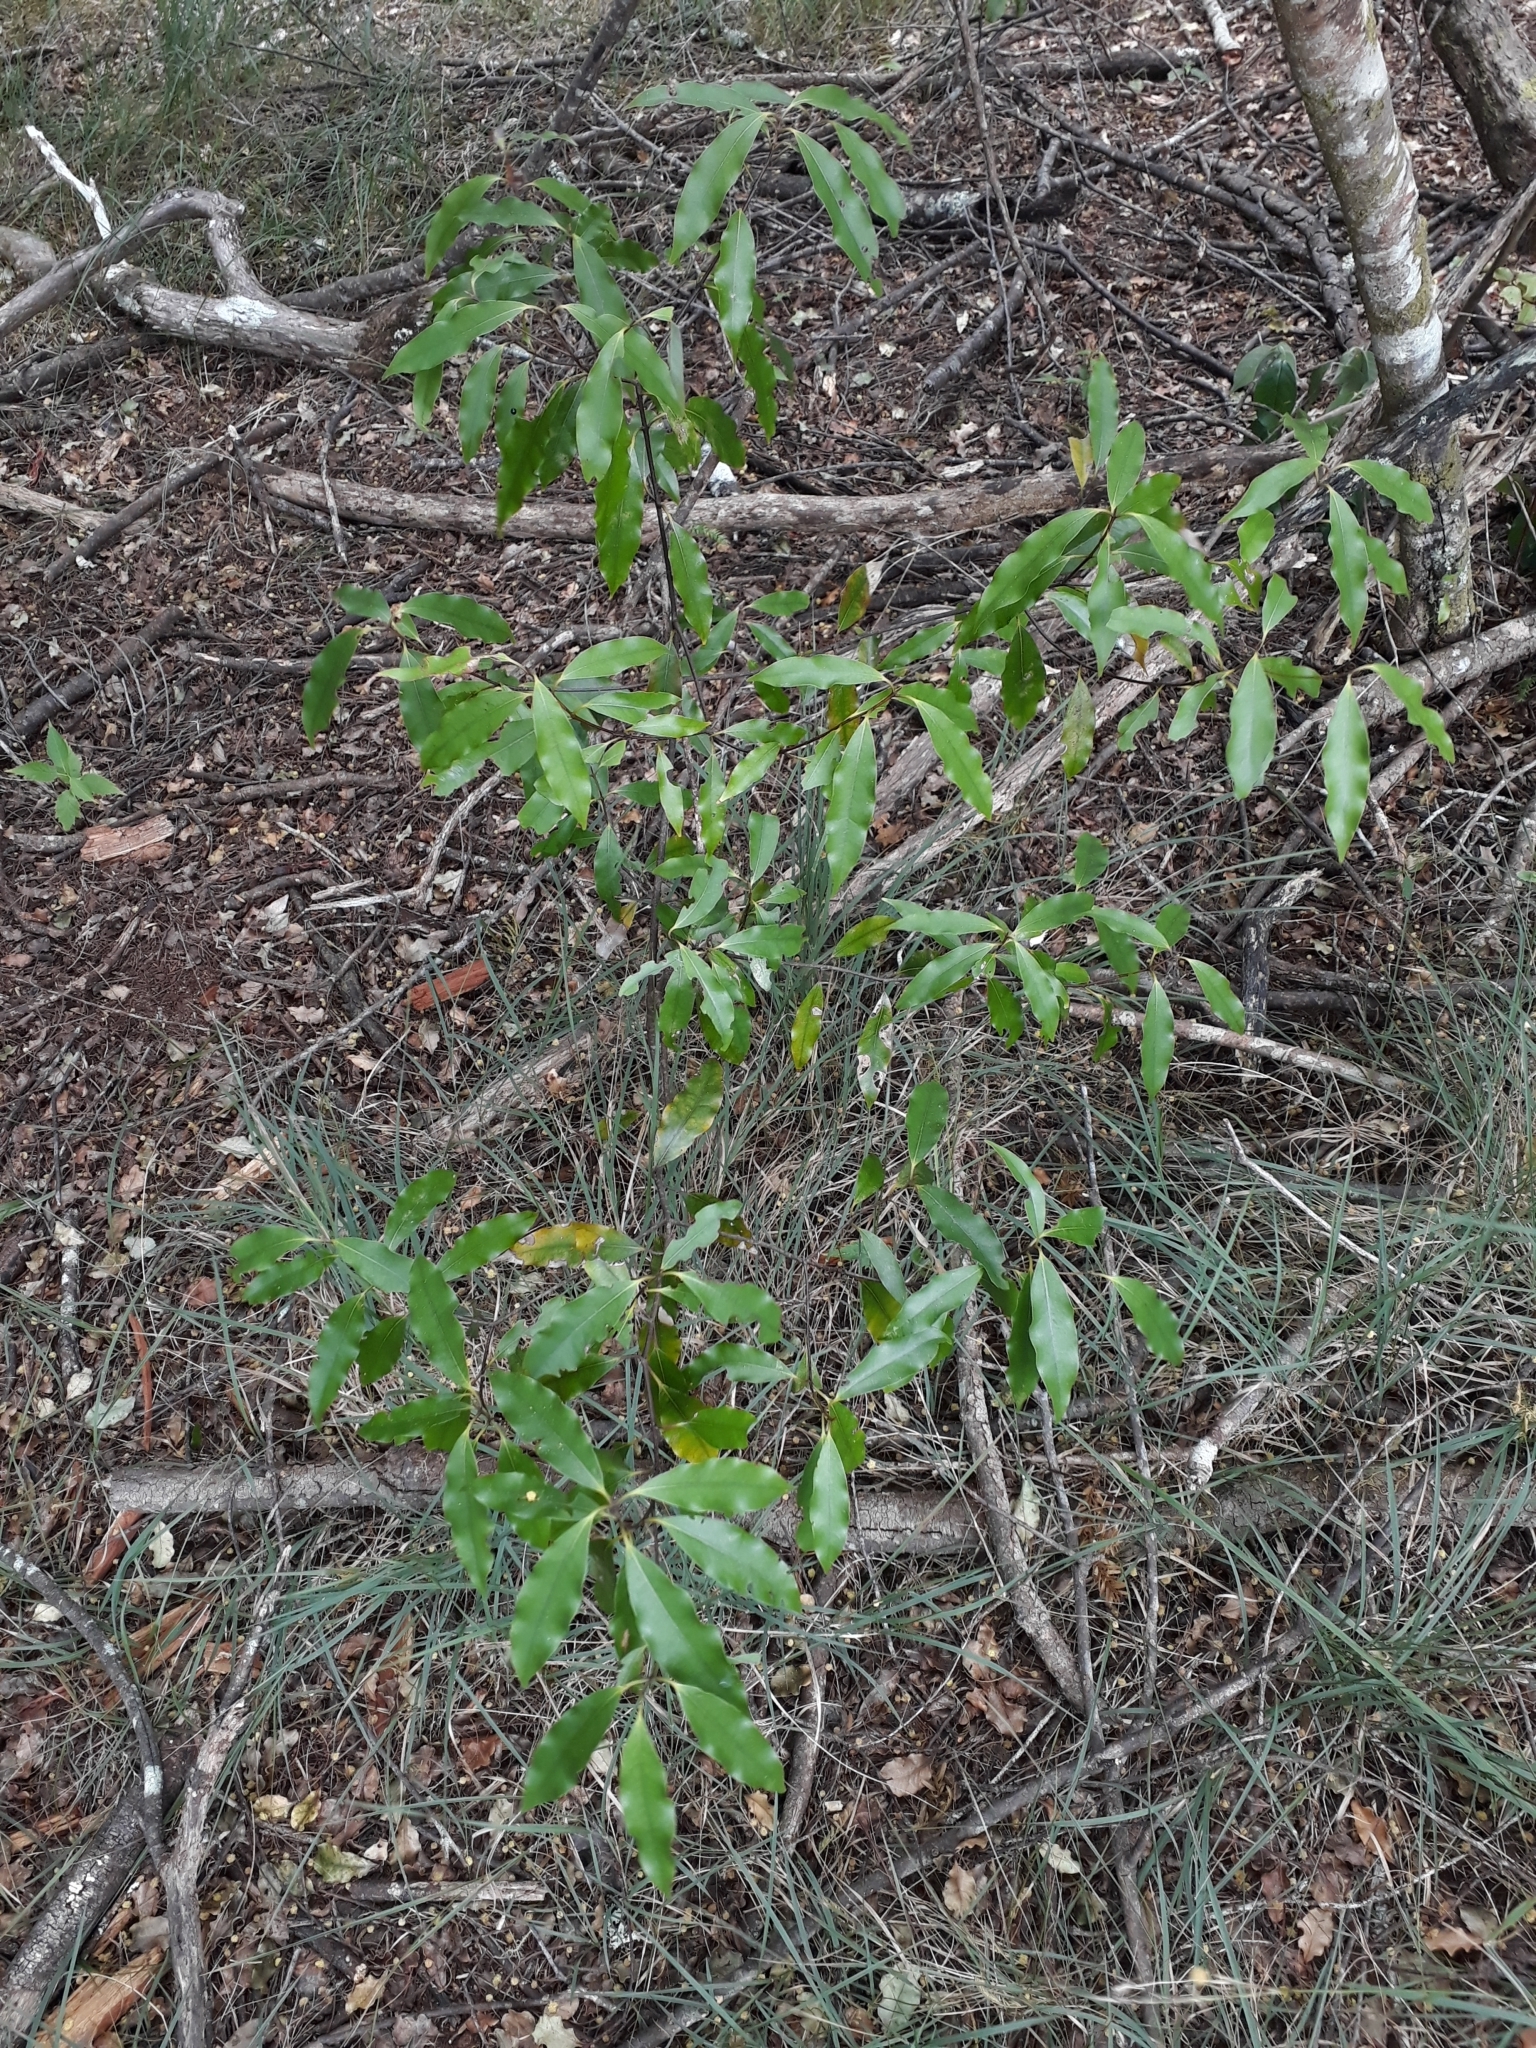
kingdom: Plantae
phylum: Tracheophyta
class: Magnoliopsida
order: Laurales
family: Lauraceae
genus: Beilschmiedia
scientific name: Beilschmiedia tawa
